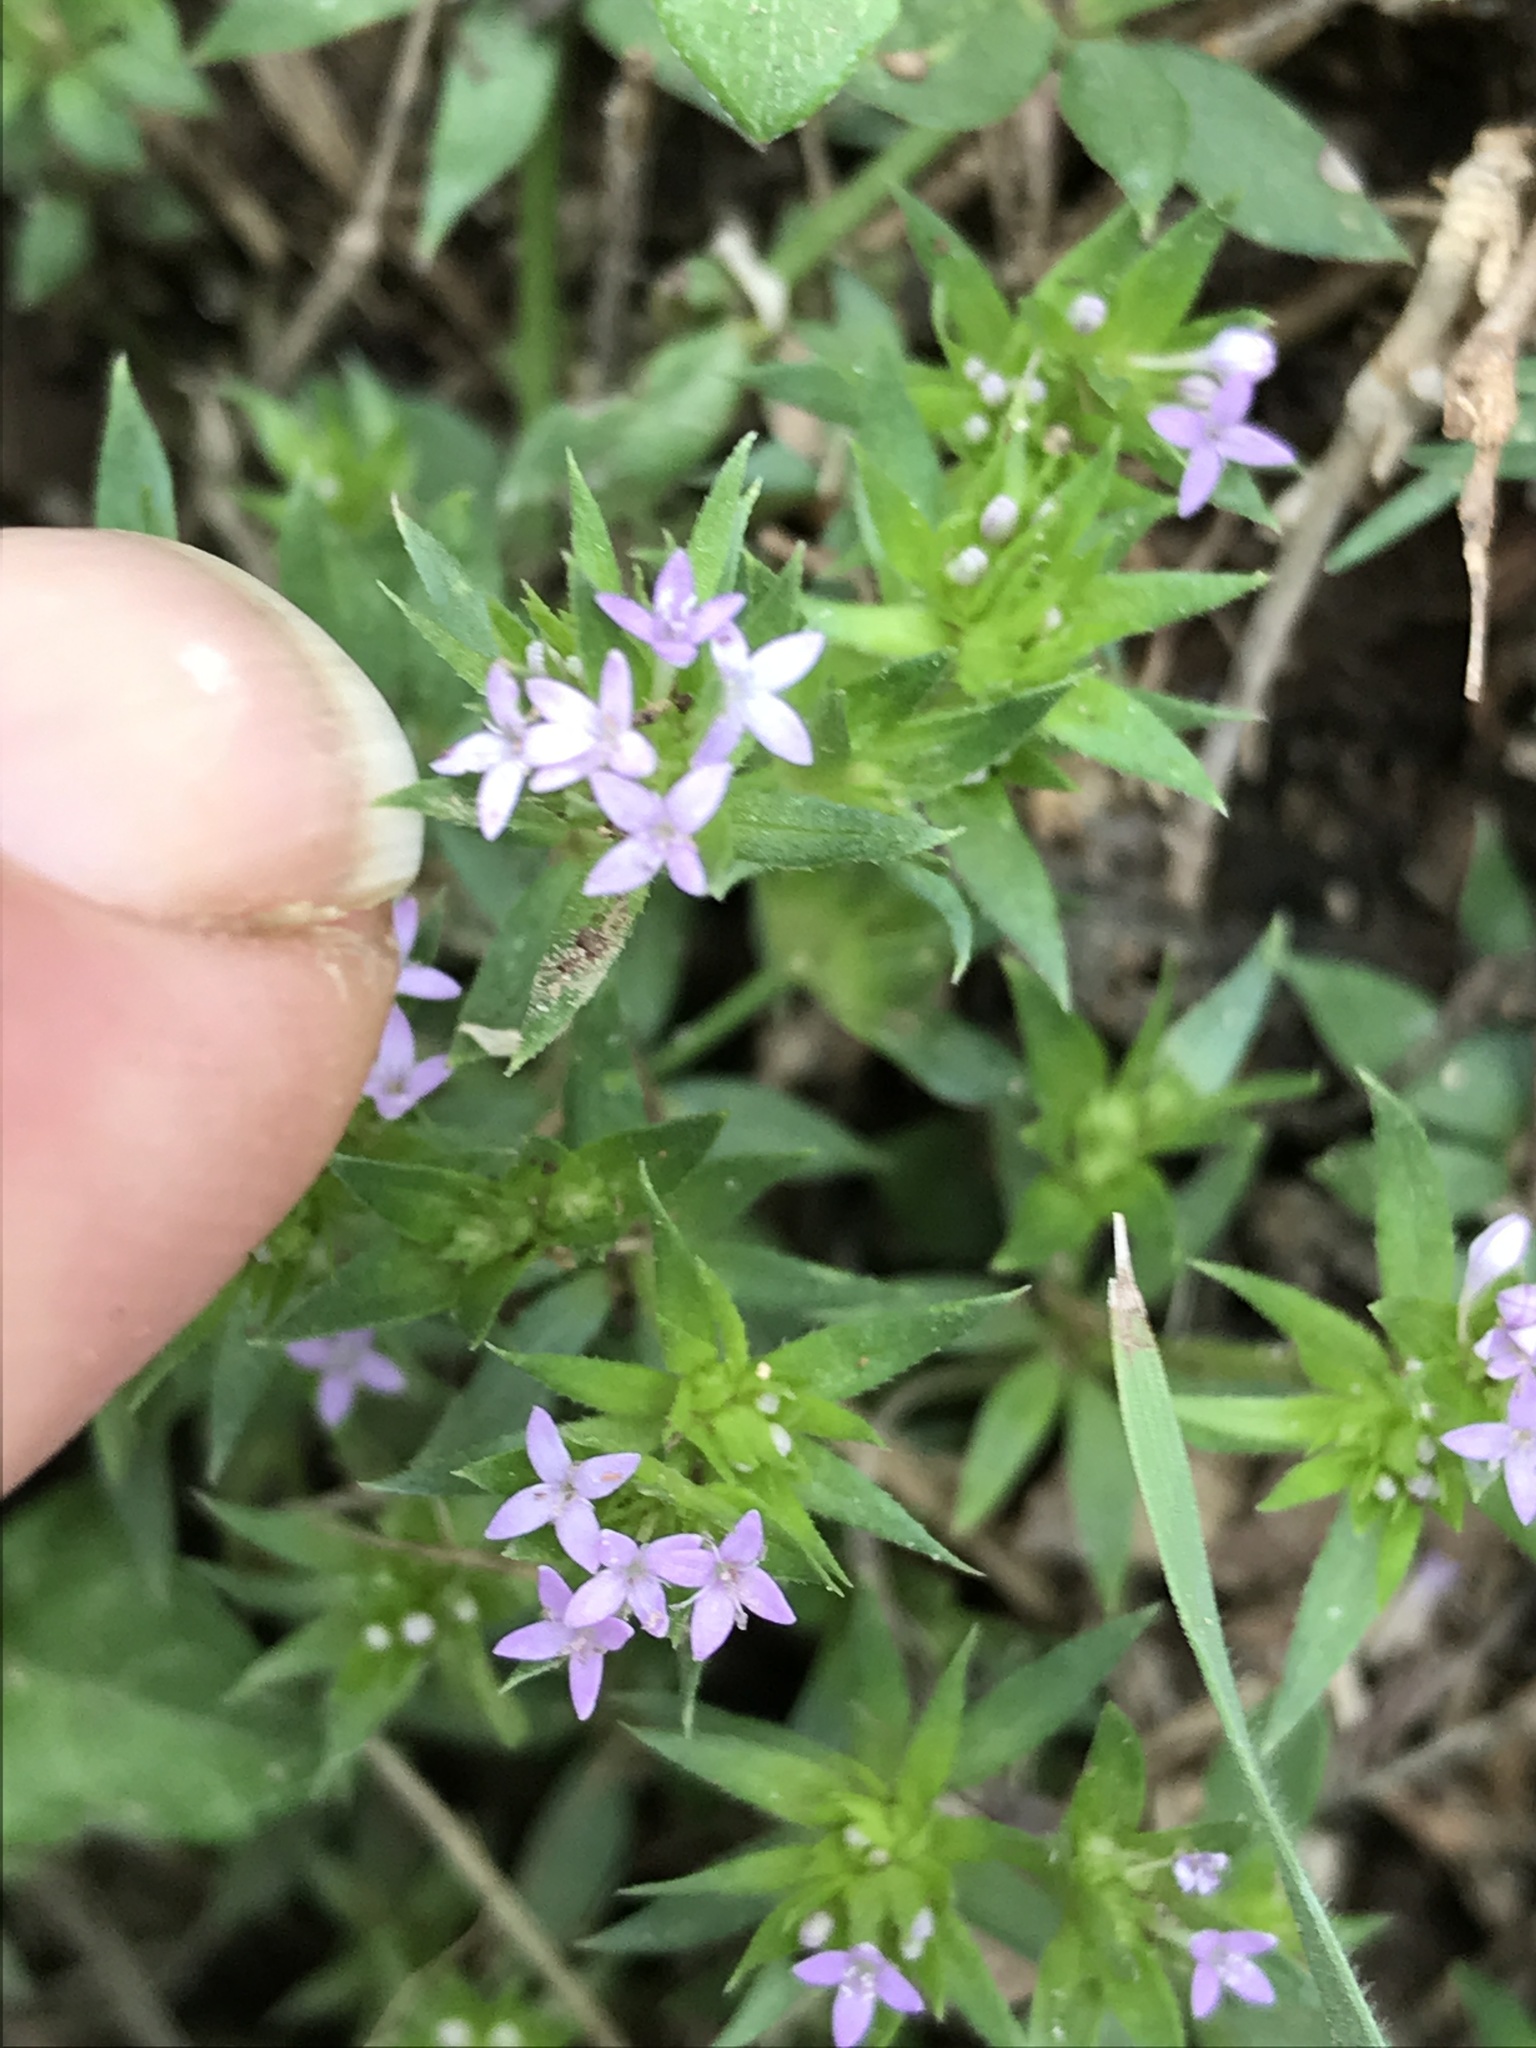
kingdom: Plantae
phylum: Tracheophyta
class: Magnoliopsida
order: Gentianales
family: Rubiaceae
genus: Sherardia
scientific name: Sherardia arvensis
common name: Field madder
